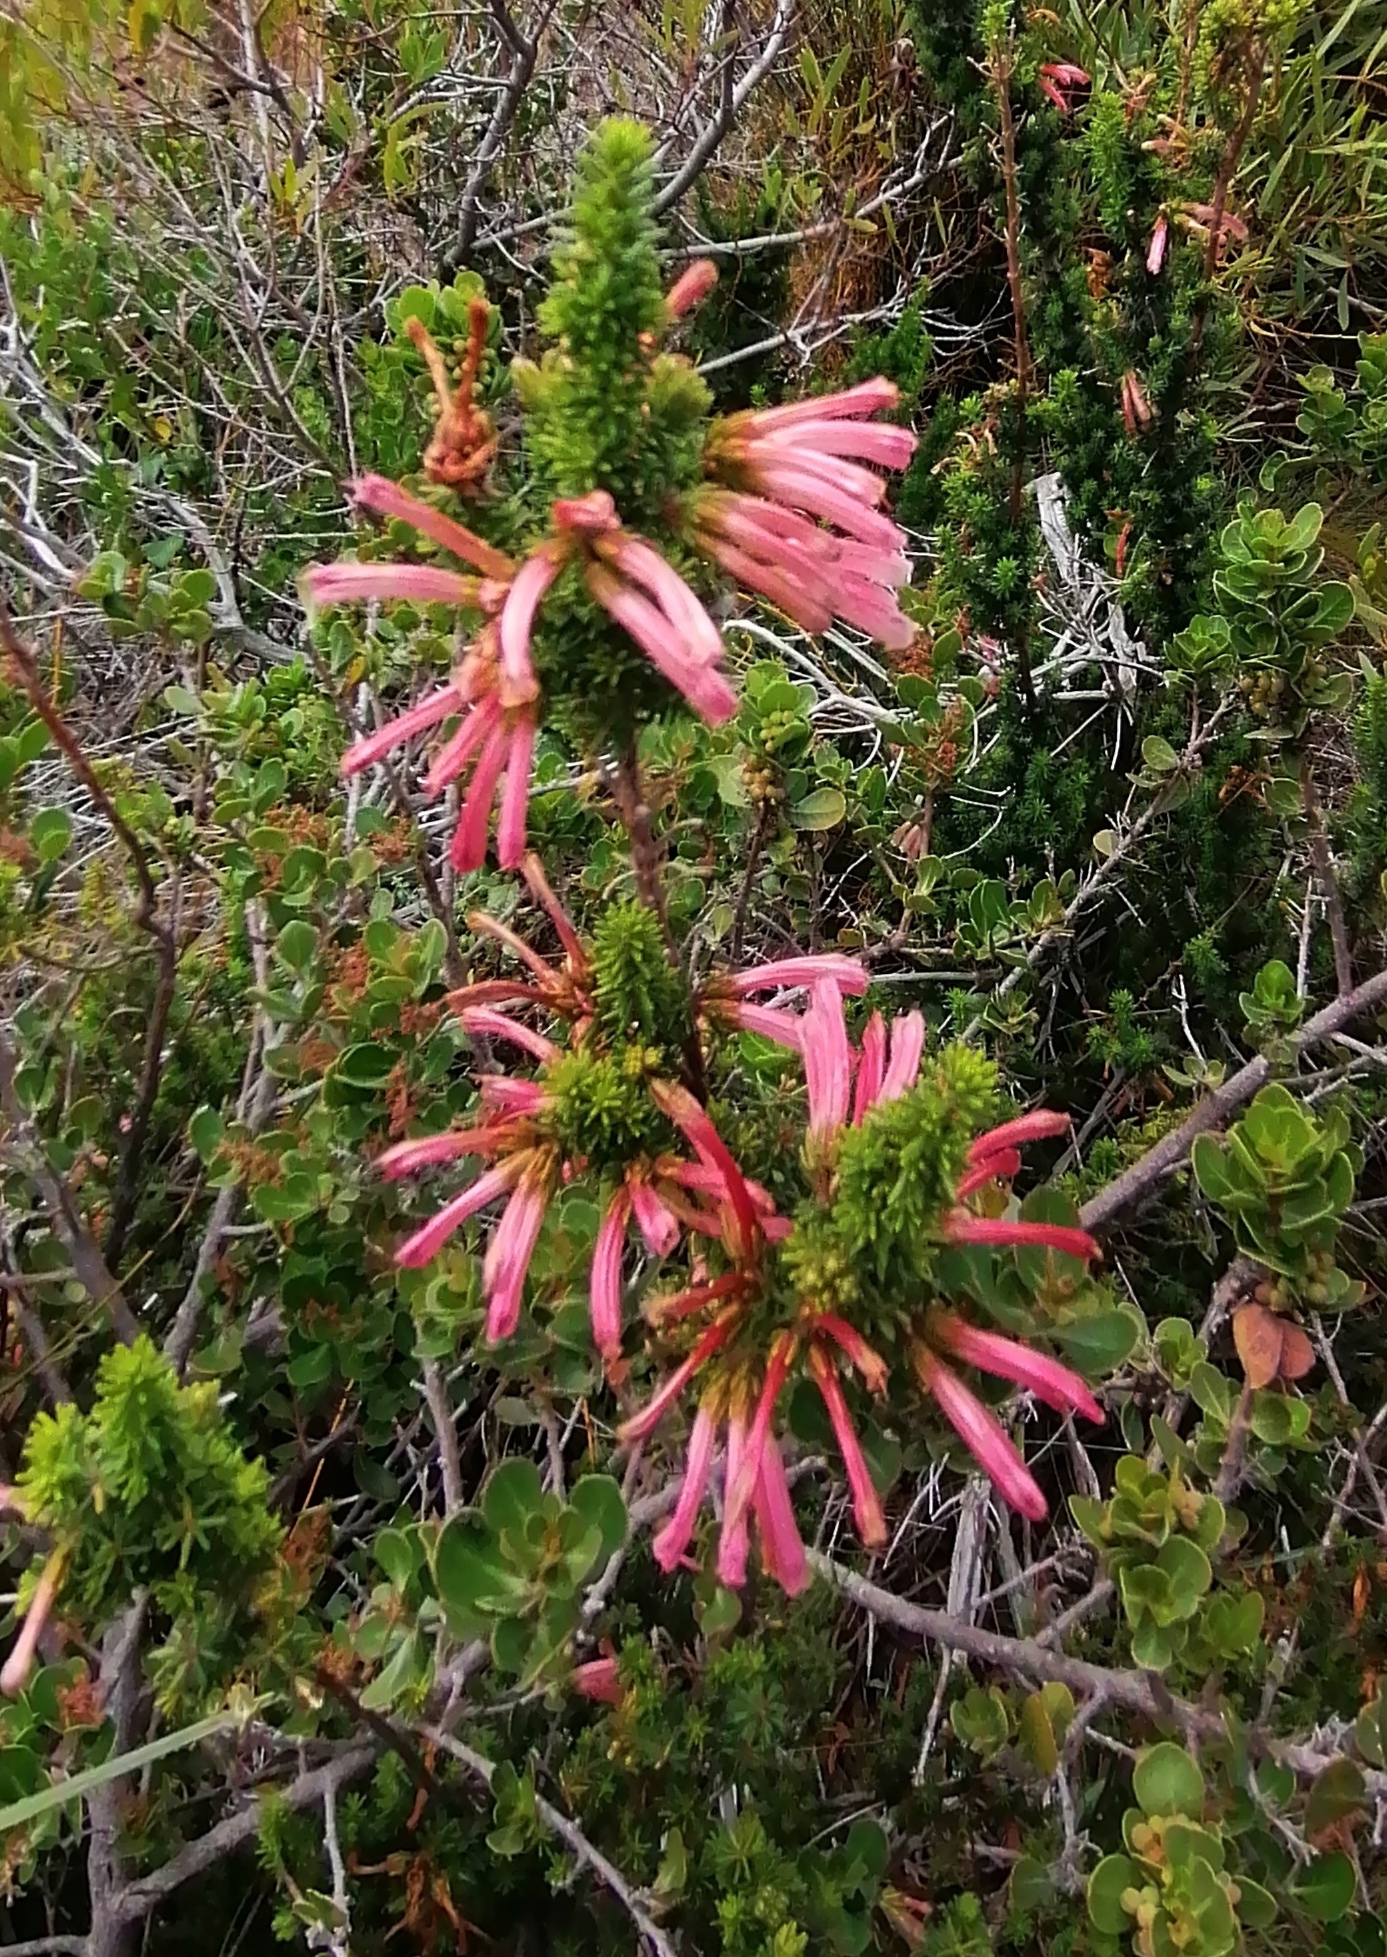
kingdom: Plantae
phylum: Tracheophyta
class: Magnoliopsida
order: Ericales
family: Ericaceae
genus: Erica
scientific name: Erica glandulosa
